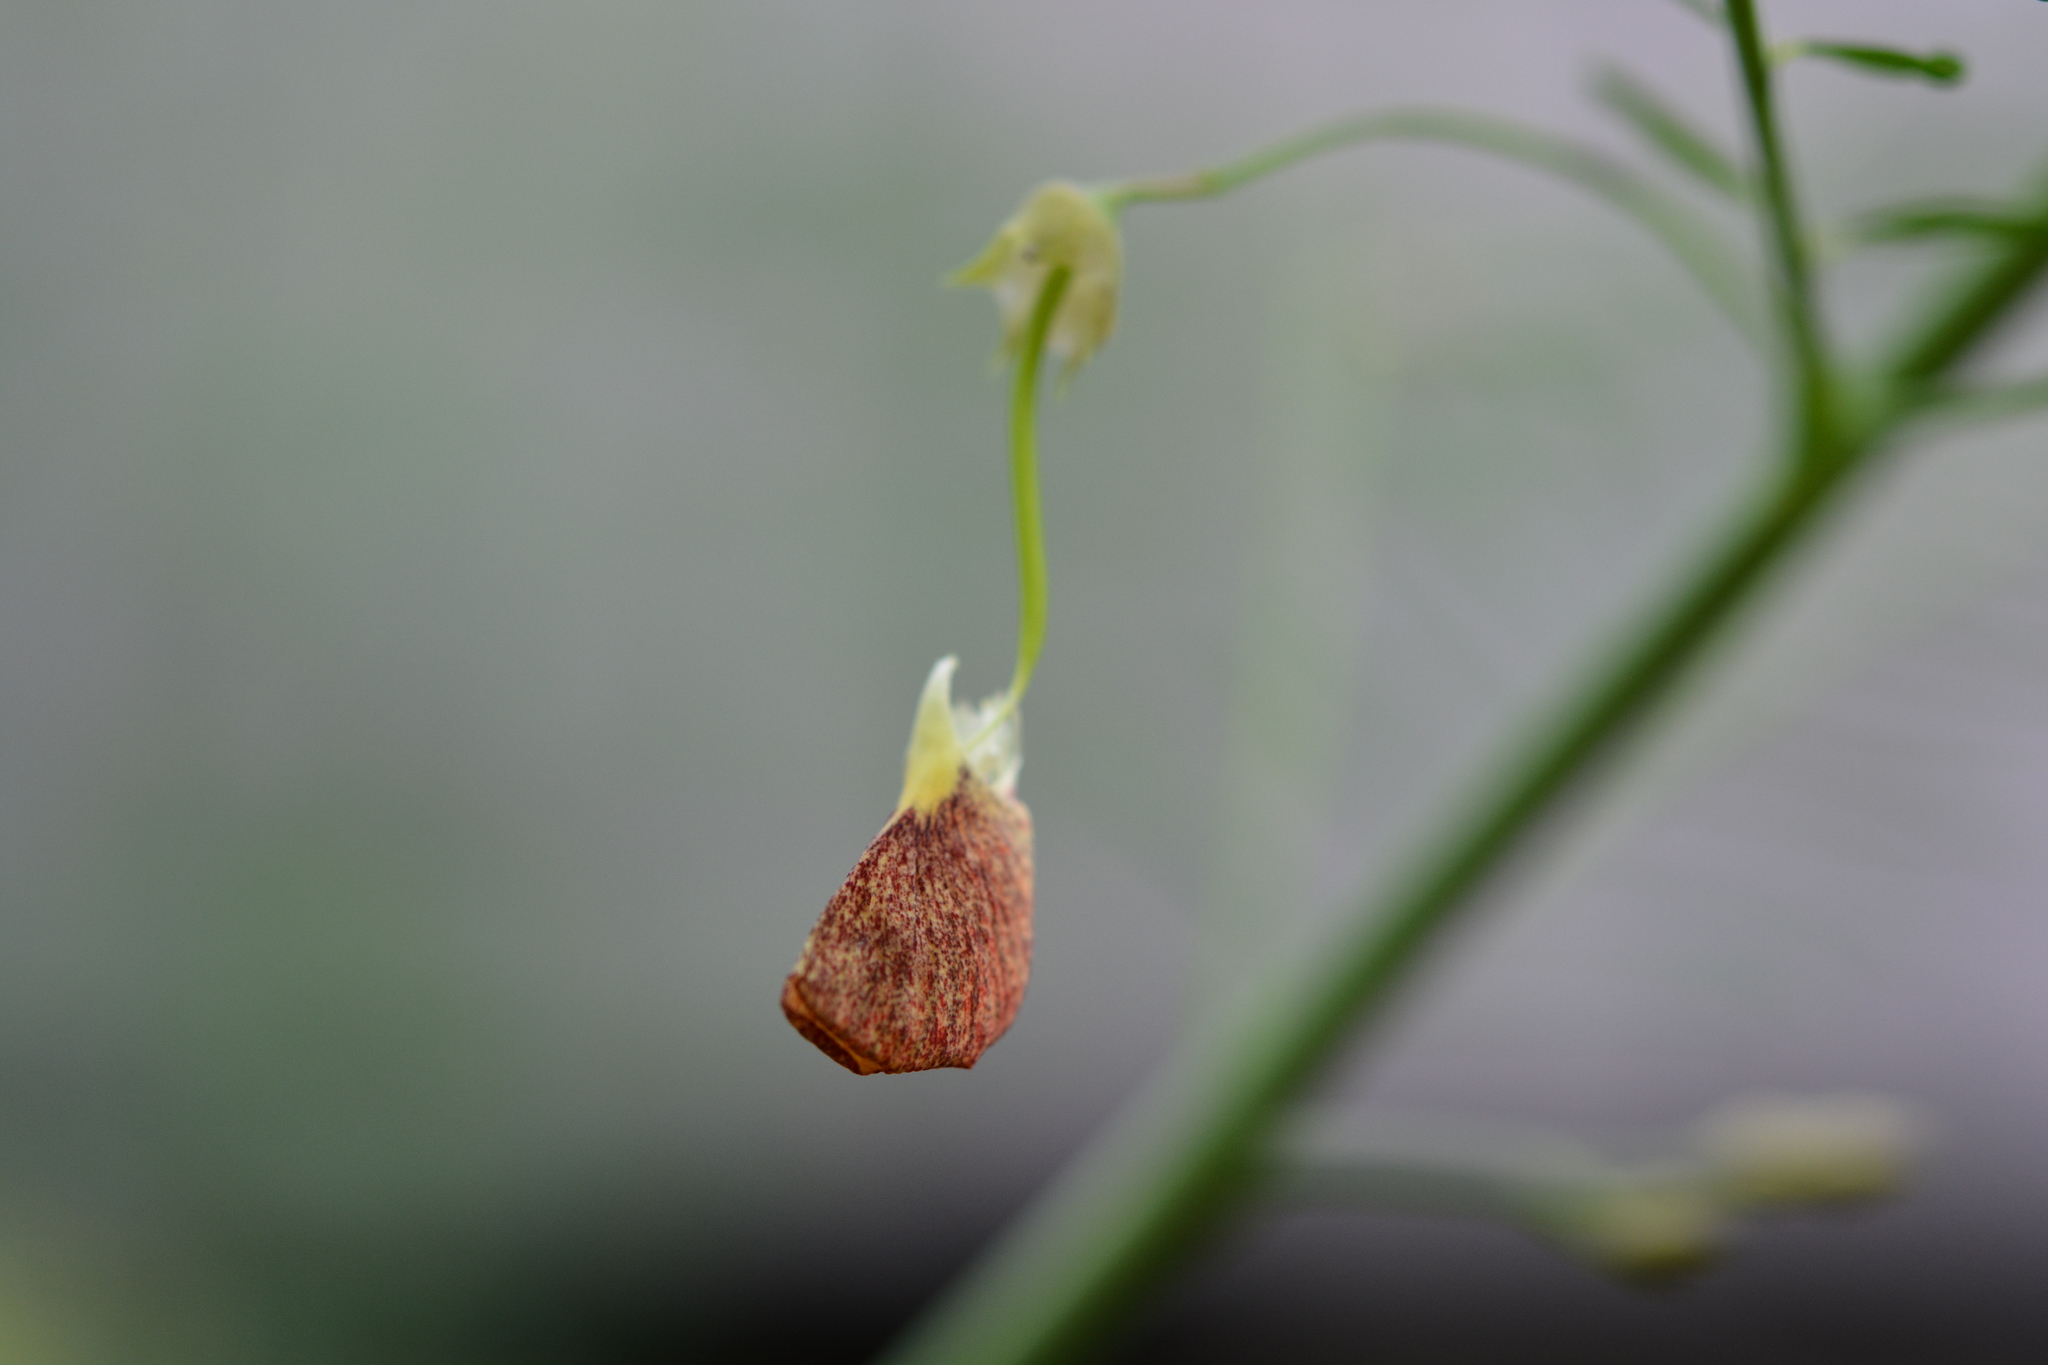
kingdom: Plantae
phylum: Tracheophyta
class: Magnoliopsida
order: Fabales
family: Fabaceae
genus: Sesbania
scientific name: Sesbania herbacea
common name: Bigpod sesbania
